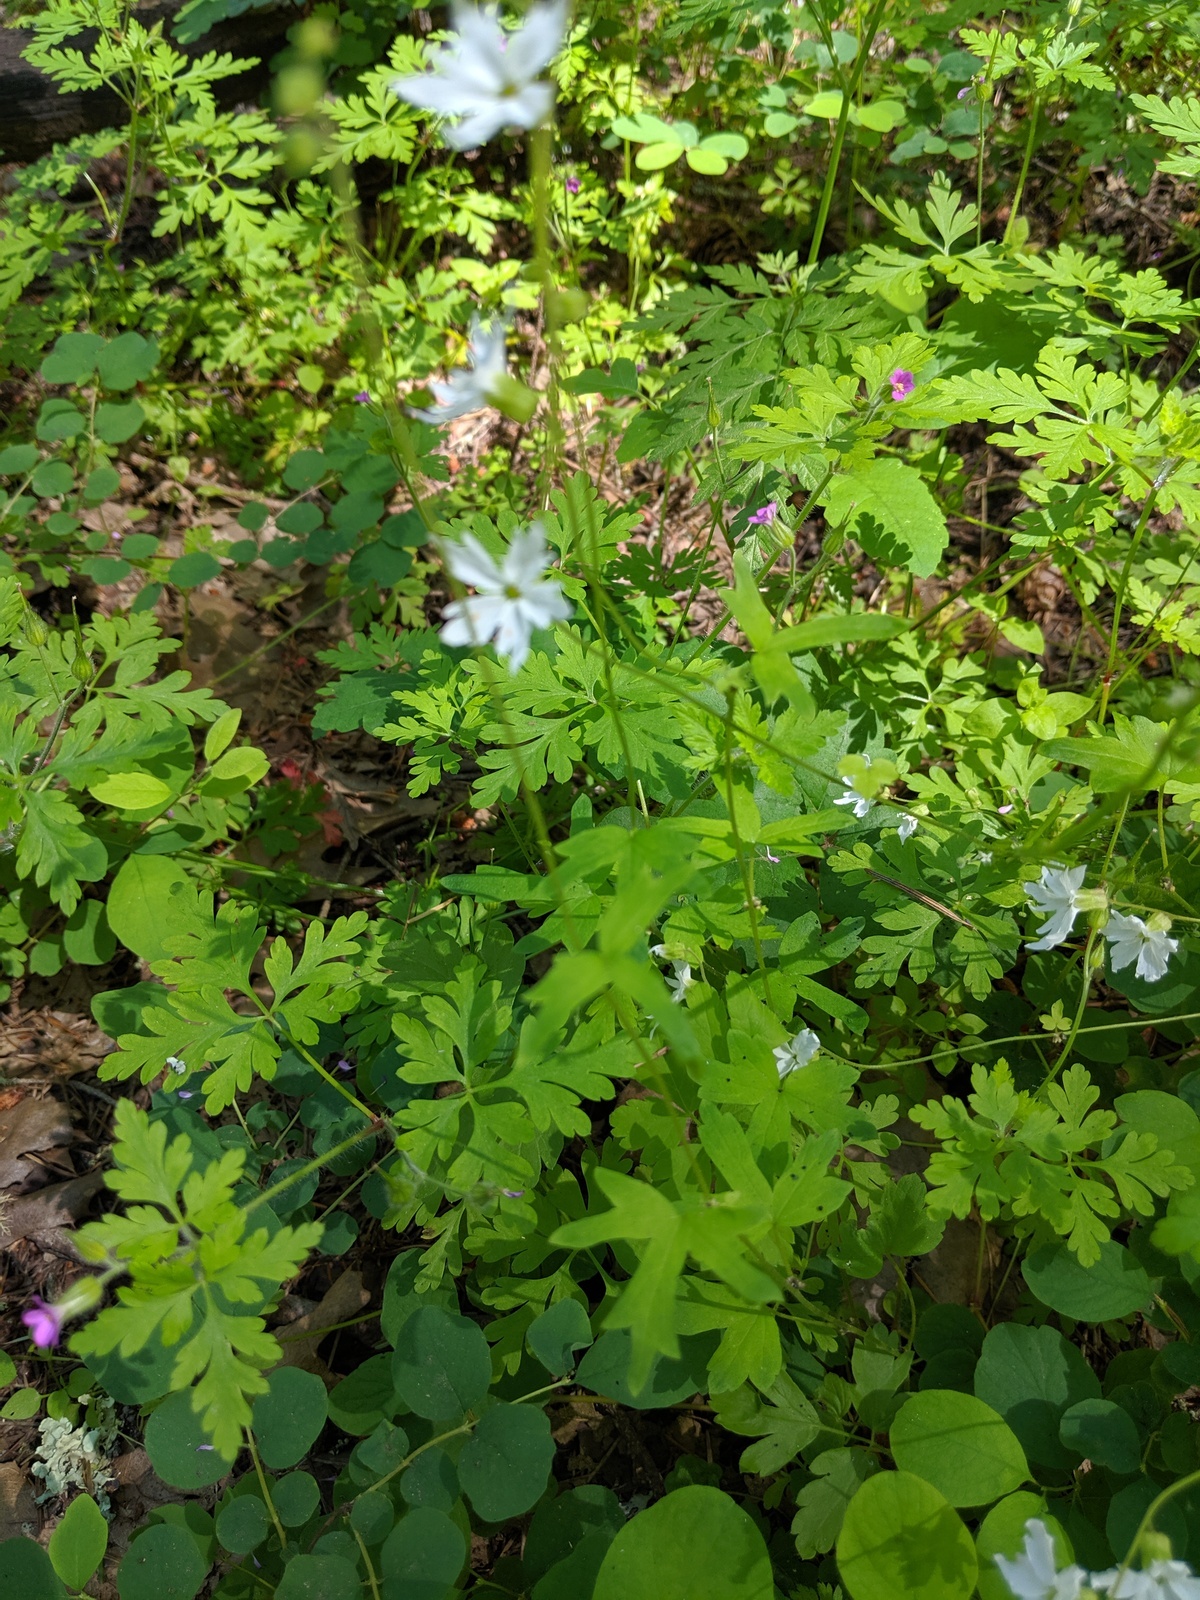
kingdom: Plantae
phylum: Tracheophyta
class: Magnoliopsida
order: Saxifragales
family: Saxifragaceae
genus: Lithophragma
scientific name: Lithophragma heterophyllum
